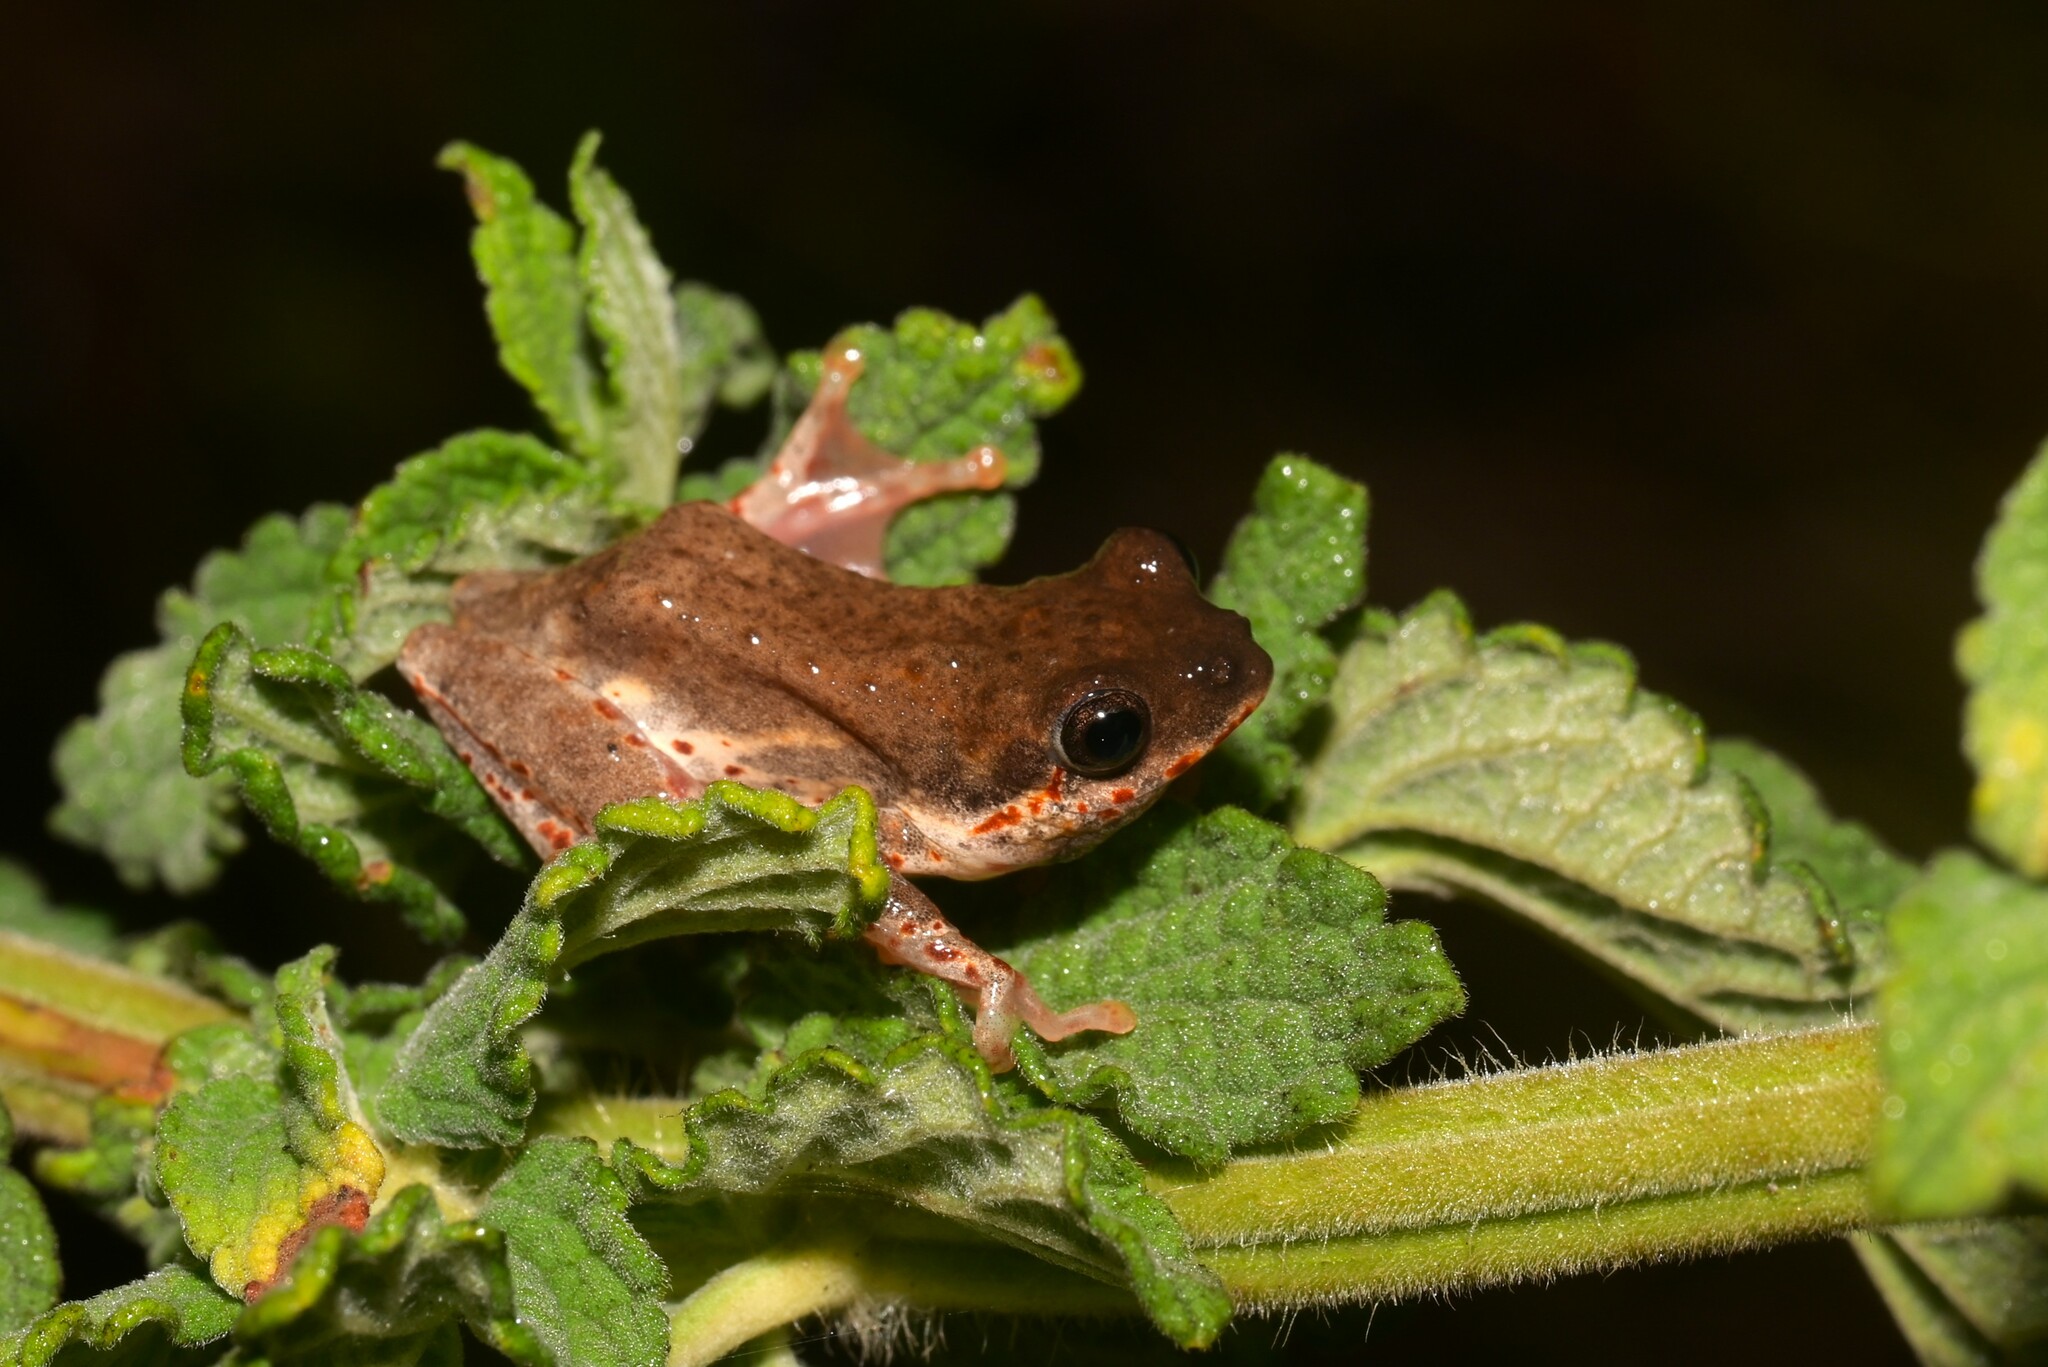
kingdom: Animalia
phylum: Chordata
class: Amphibia
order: Anura
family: Hyperoliidae
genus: Hyperolius
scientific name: Hyperolius marginatus
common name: Silver-striped sedgefrog
